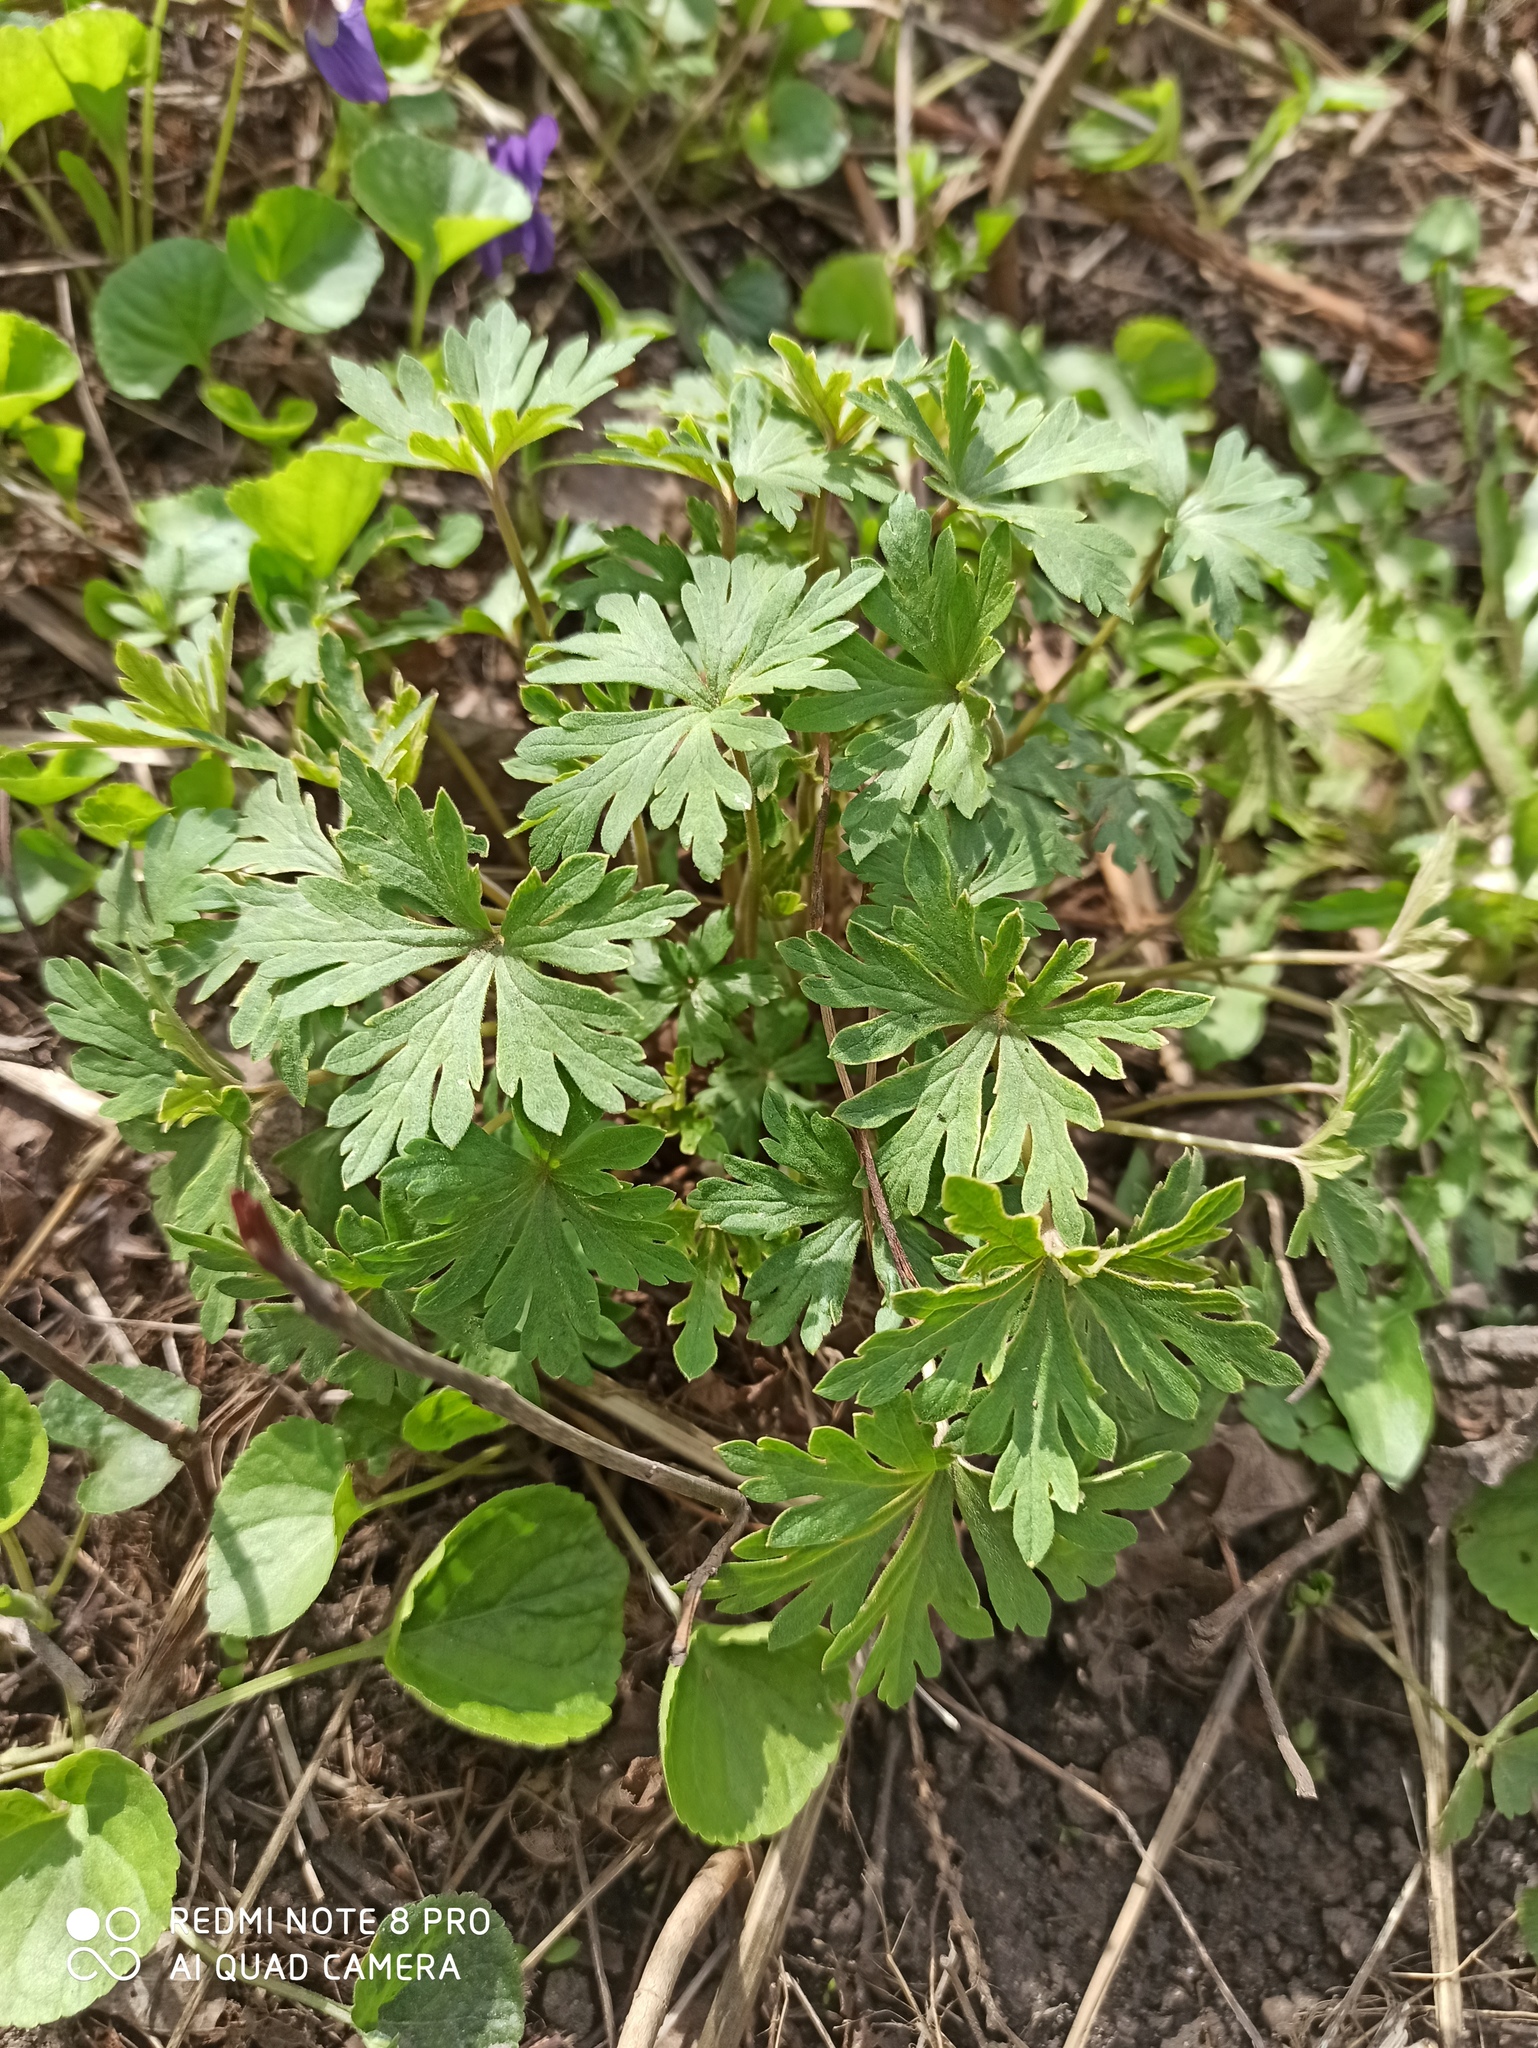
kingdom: Plantae
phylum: Tracheophyta
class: Magnoliopsida
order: Geraniales
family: Geraniaceae
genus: Geranium
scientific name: Geranium sibiricum
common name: Siberian crane's-bill
